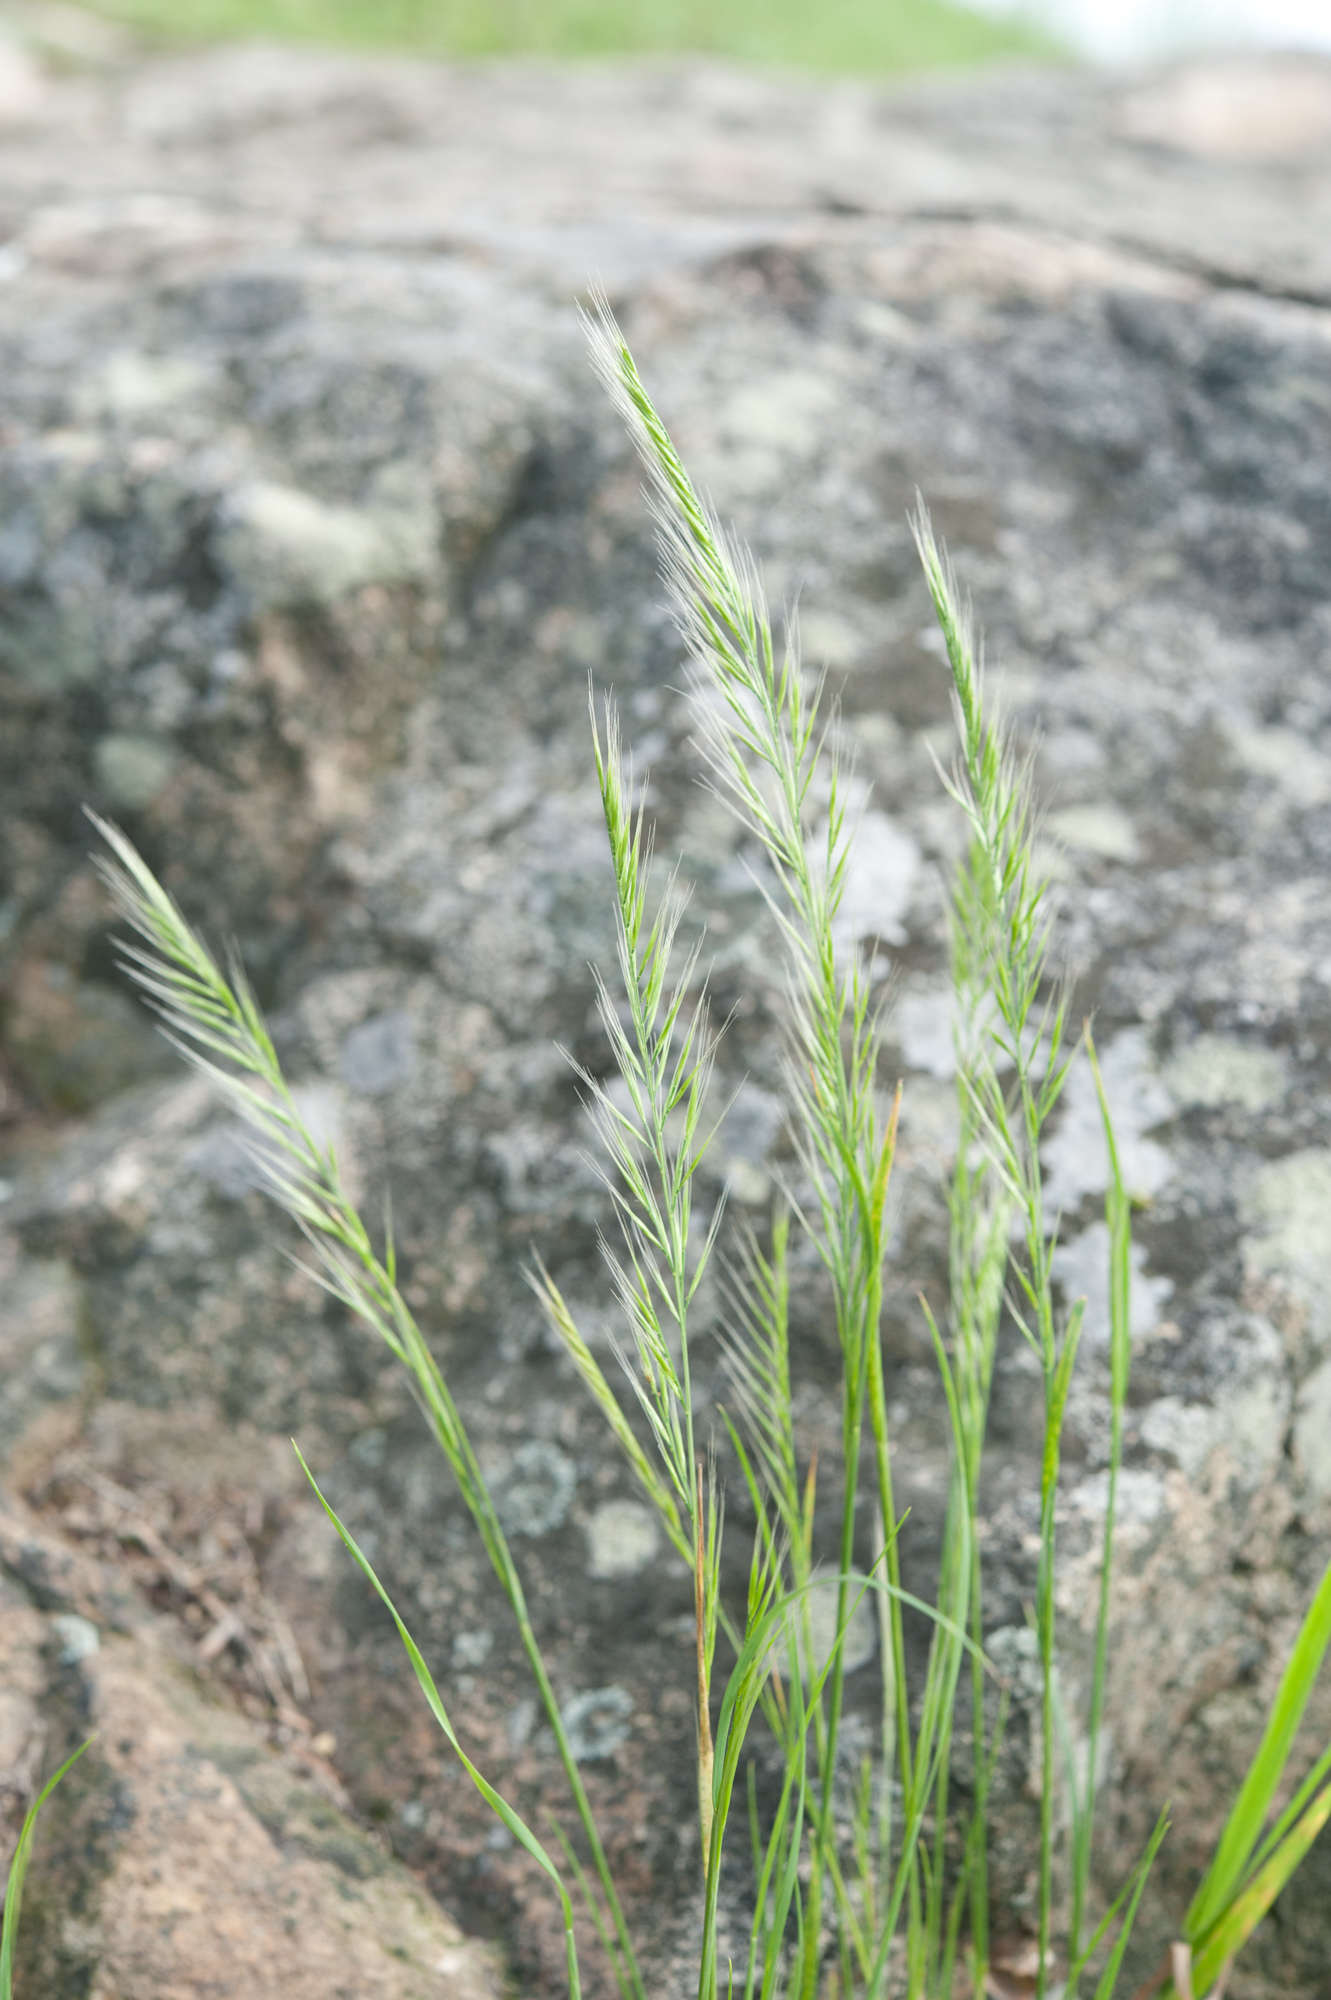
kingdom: Plantae
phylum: Tracheophyta
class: Liliopsida
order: Poales
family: Poaceae
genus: Festuca
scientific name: Festuca myuros
